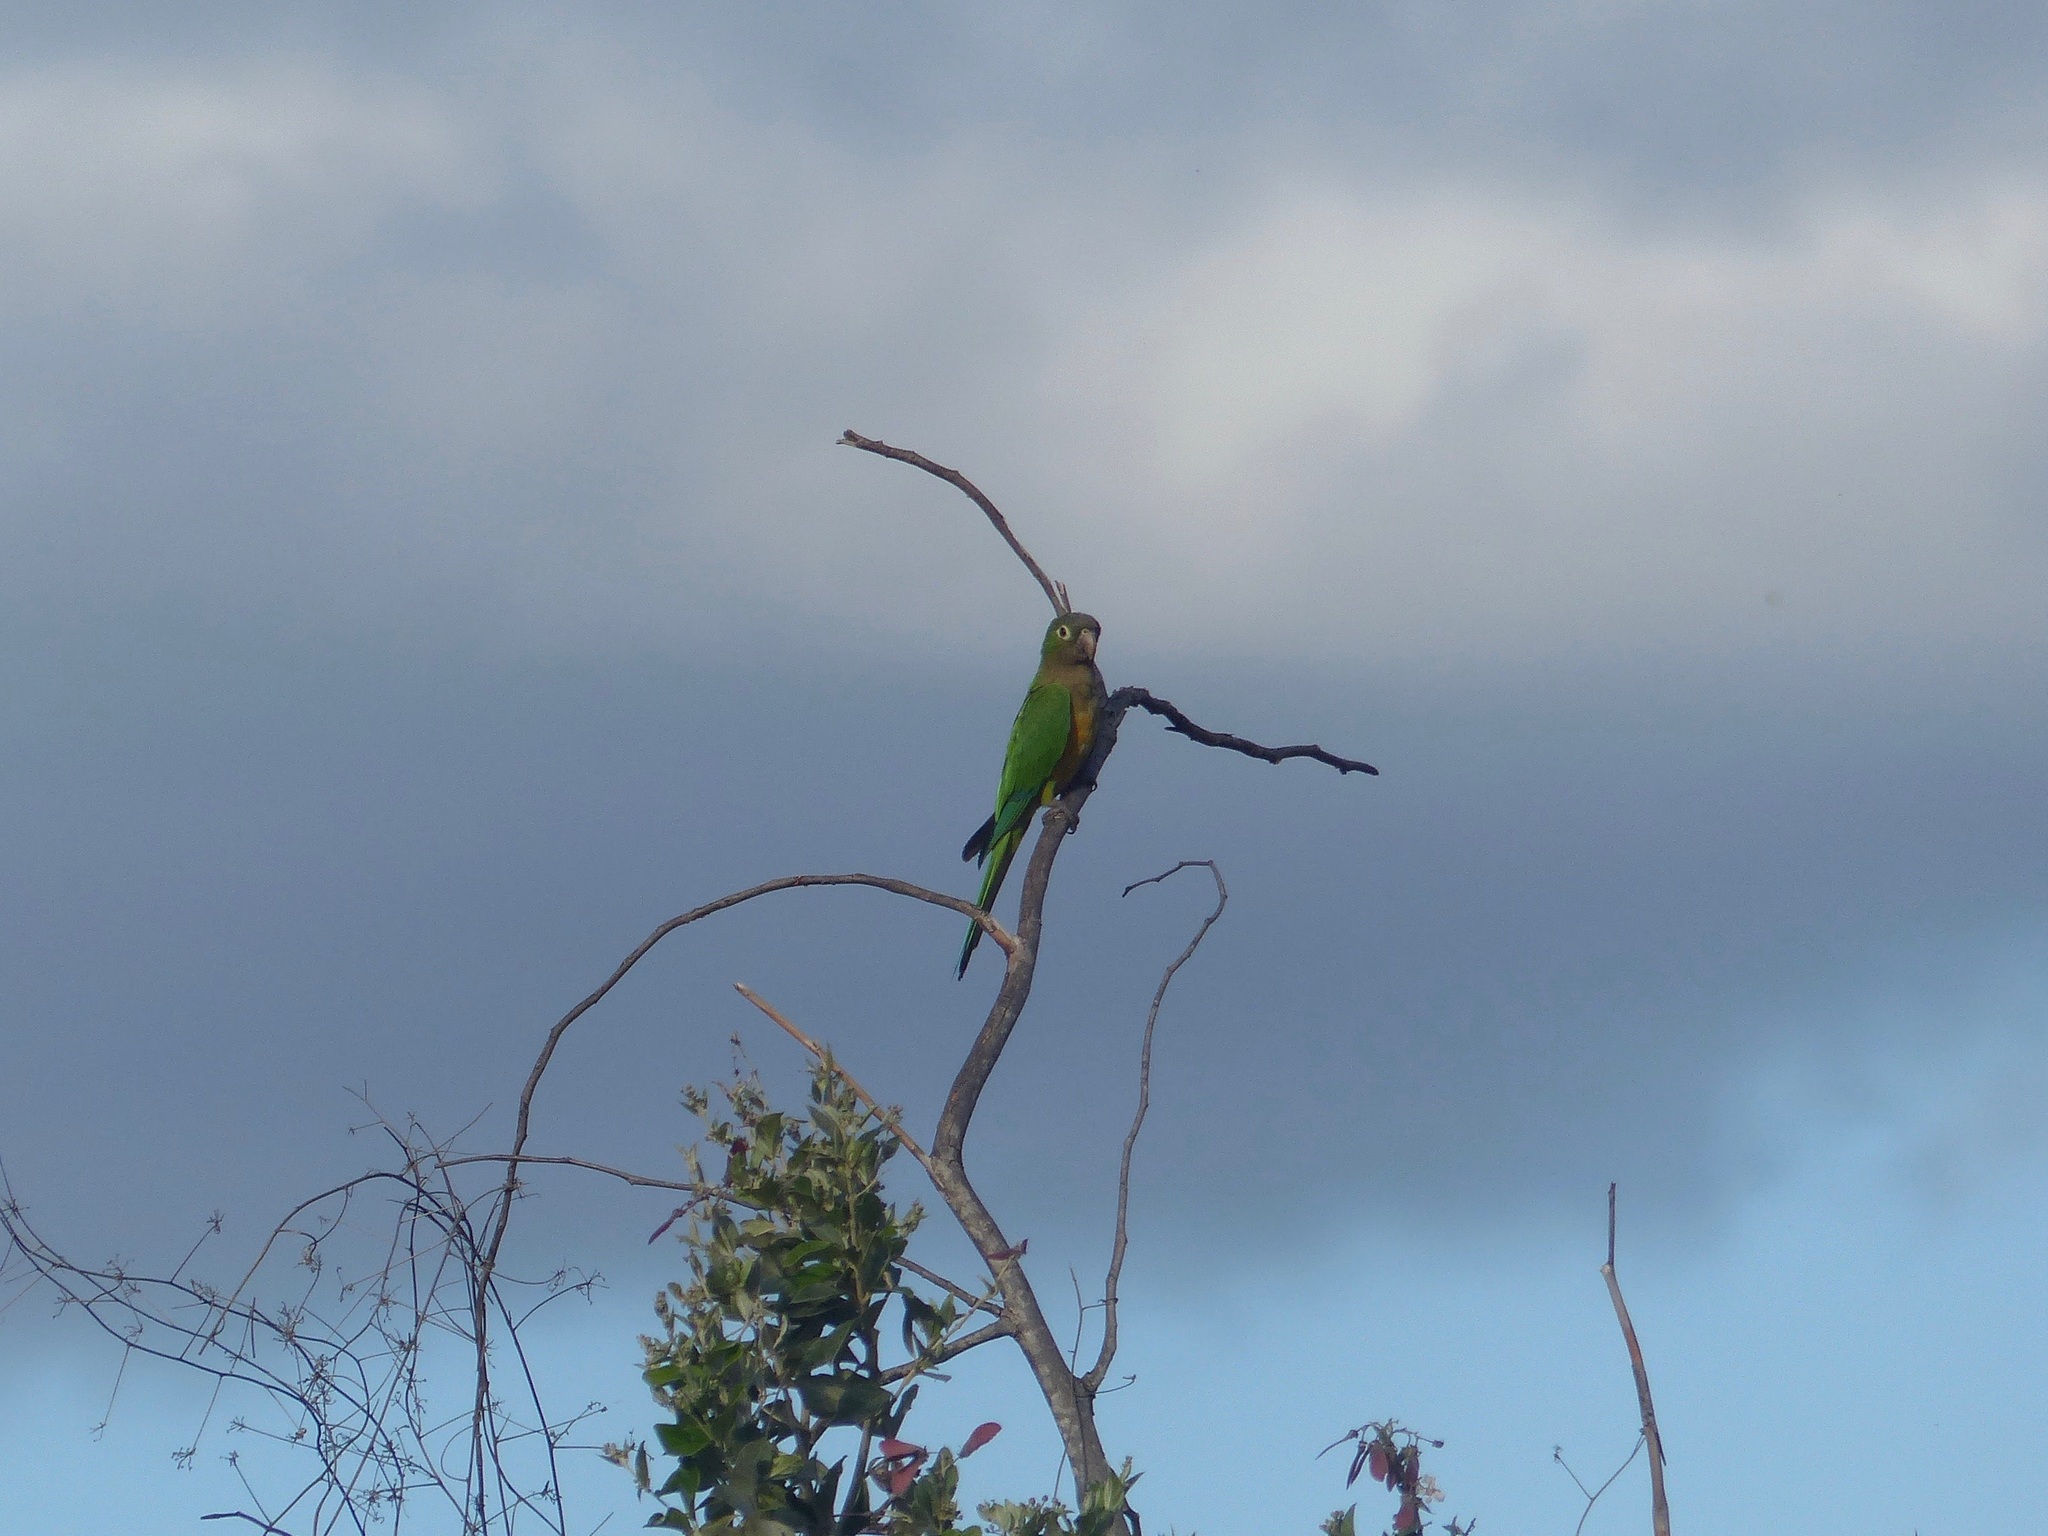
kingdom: Animalia
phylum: Chordata
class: Aves
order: Psittaciformes
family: Psittacidae
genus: Aratinga
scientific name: Aratinga cactorum
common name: Caatinga parakeet
